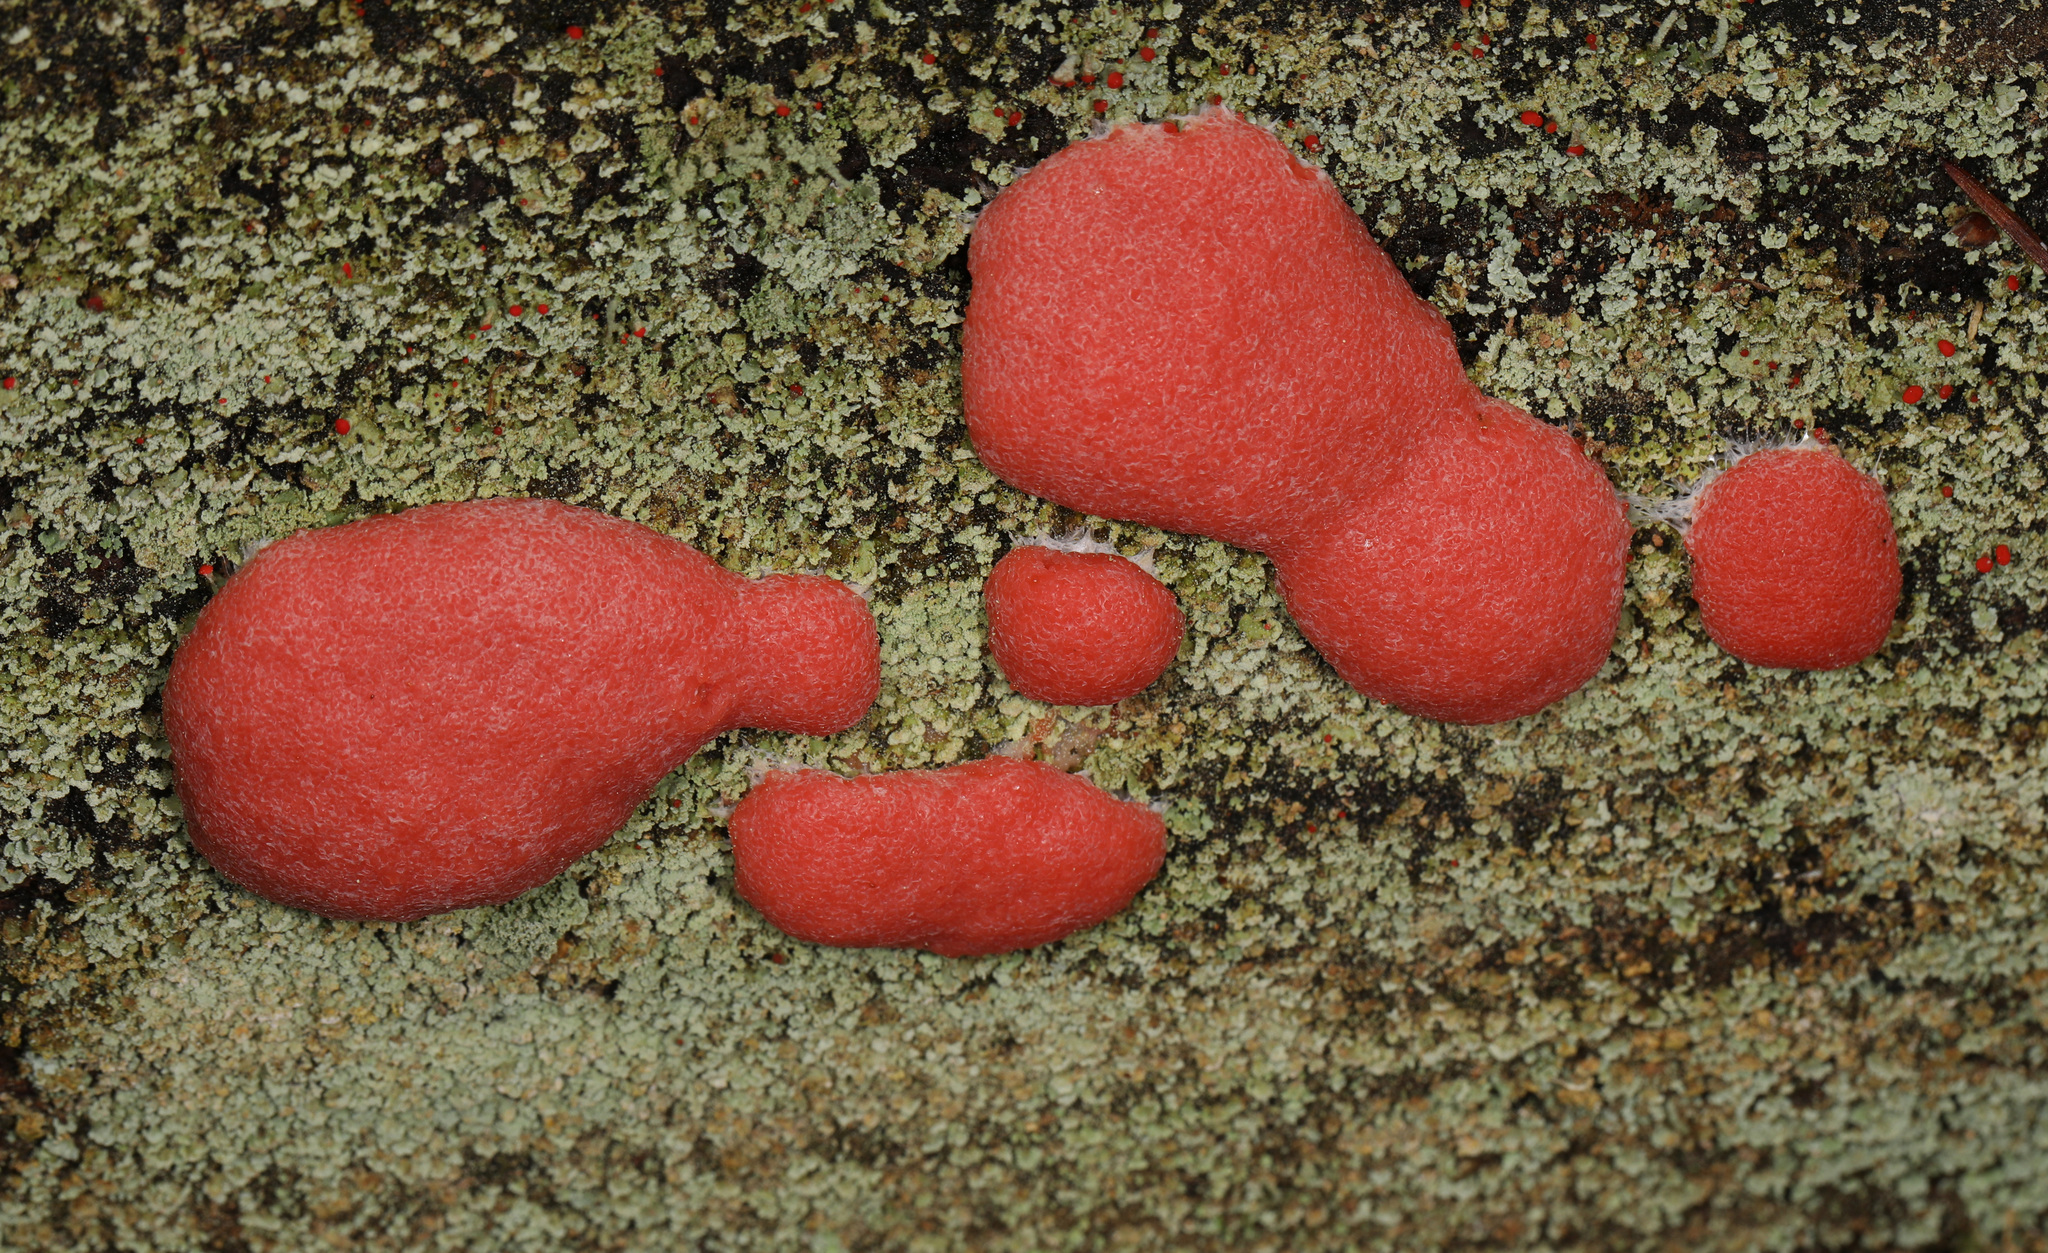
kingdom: Protozoa
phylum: Mycetozoa
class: Myxomycetes
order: Cribrariales
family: Tubiferaceae
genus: Tubifera
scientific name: Tubifera ferruginosa
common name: Red raspberry slime mold
